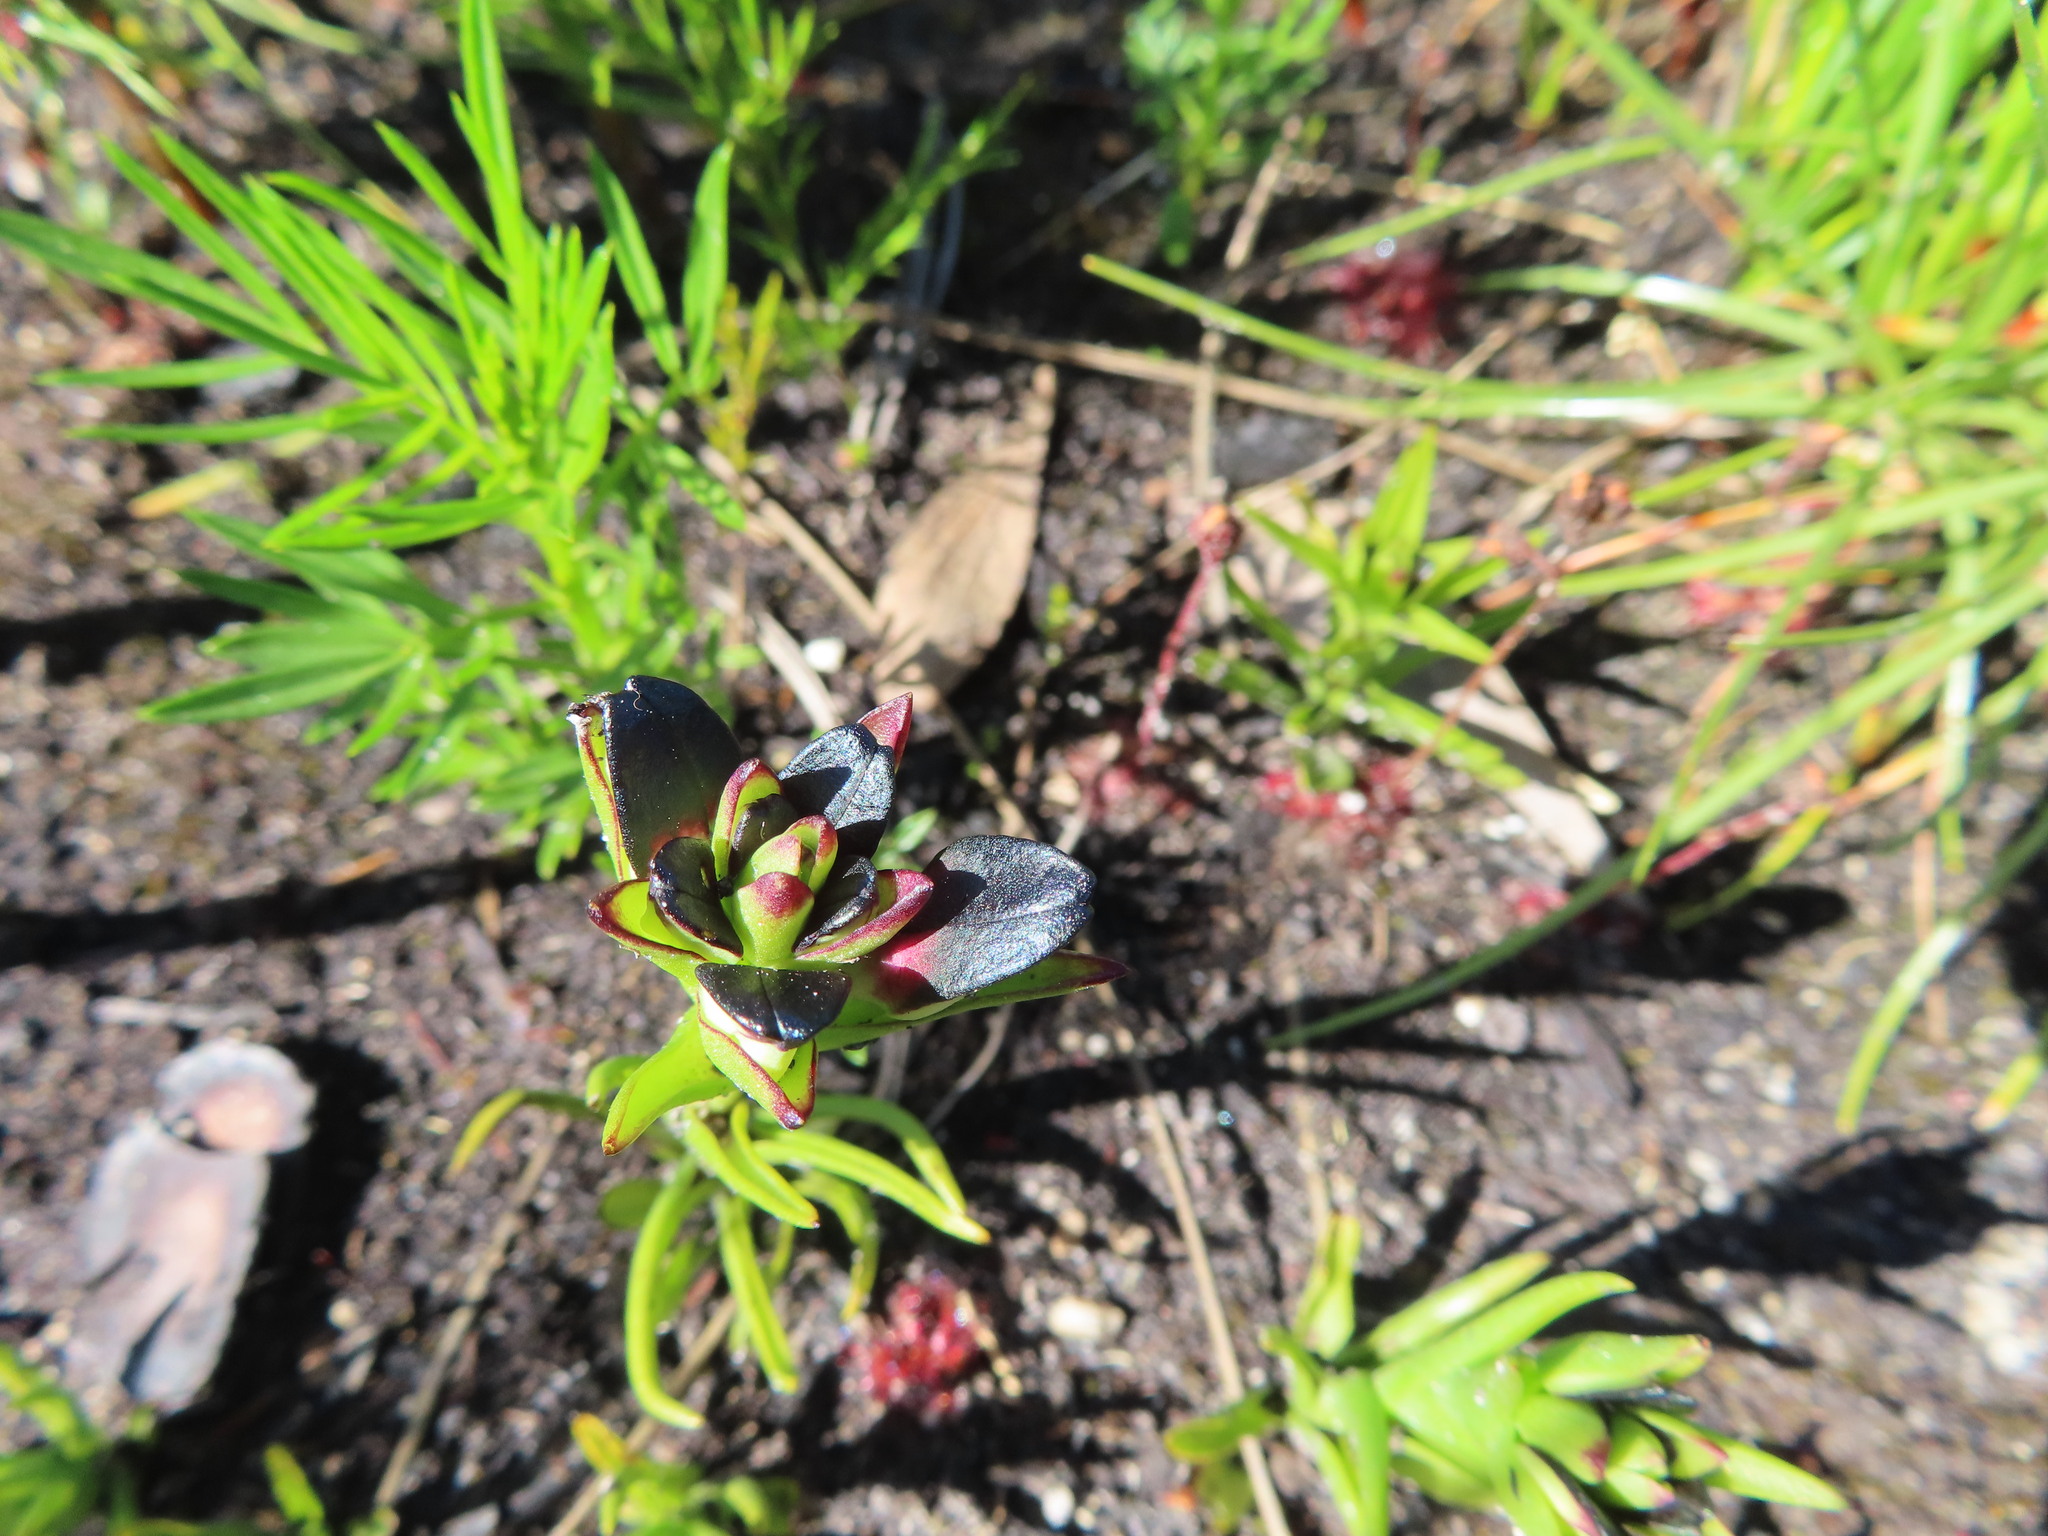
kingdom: Plantae
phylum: Tracheophyta
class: Liliopsida
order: Asparagales
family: Orchidaceae
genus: Disa
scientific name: Disa atricapilla
